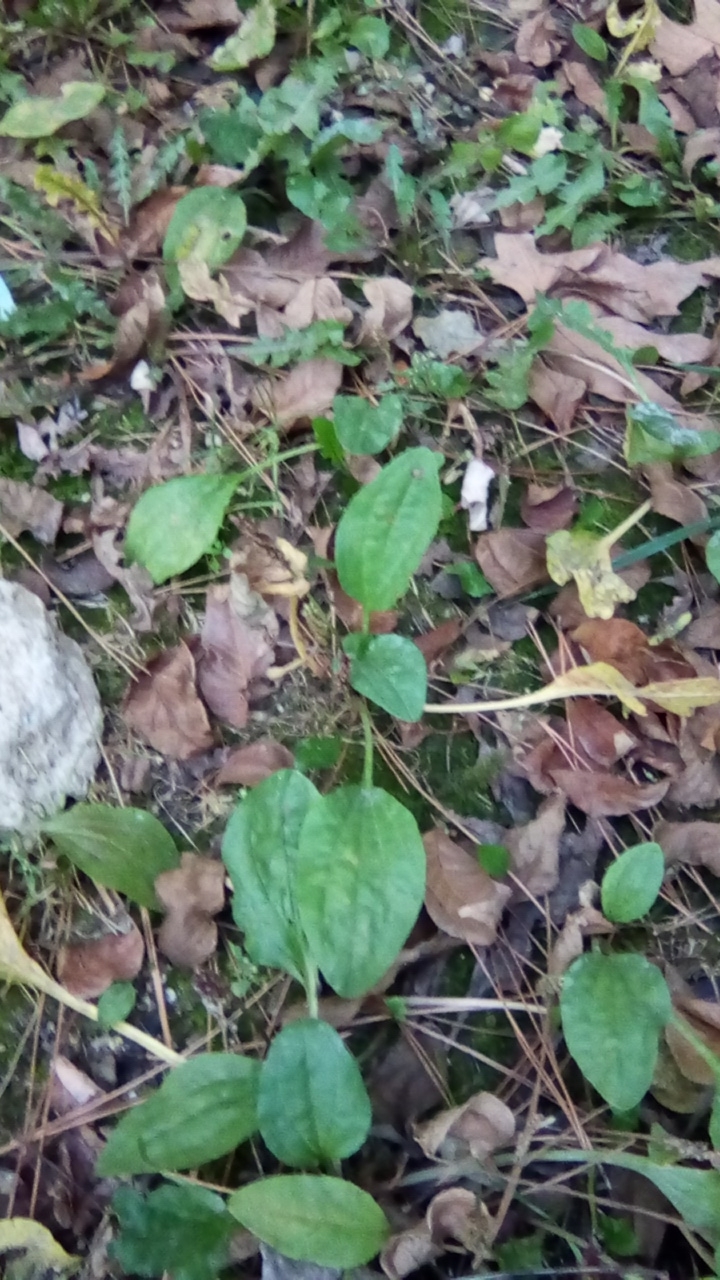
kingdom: Plantae
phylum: Tracheophyta
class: Magnoliopsida
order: Lamiales
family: Plantaginaceae
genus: Plantago
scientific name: Plantago major
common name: Common plantain
